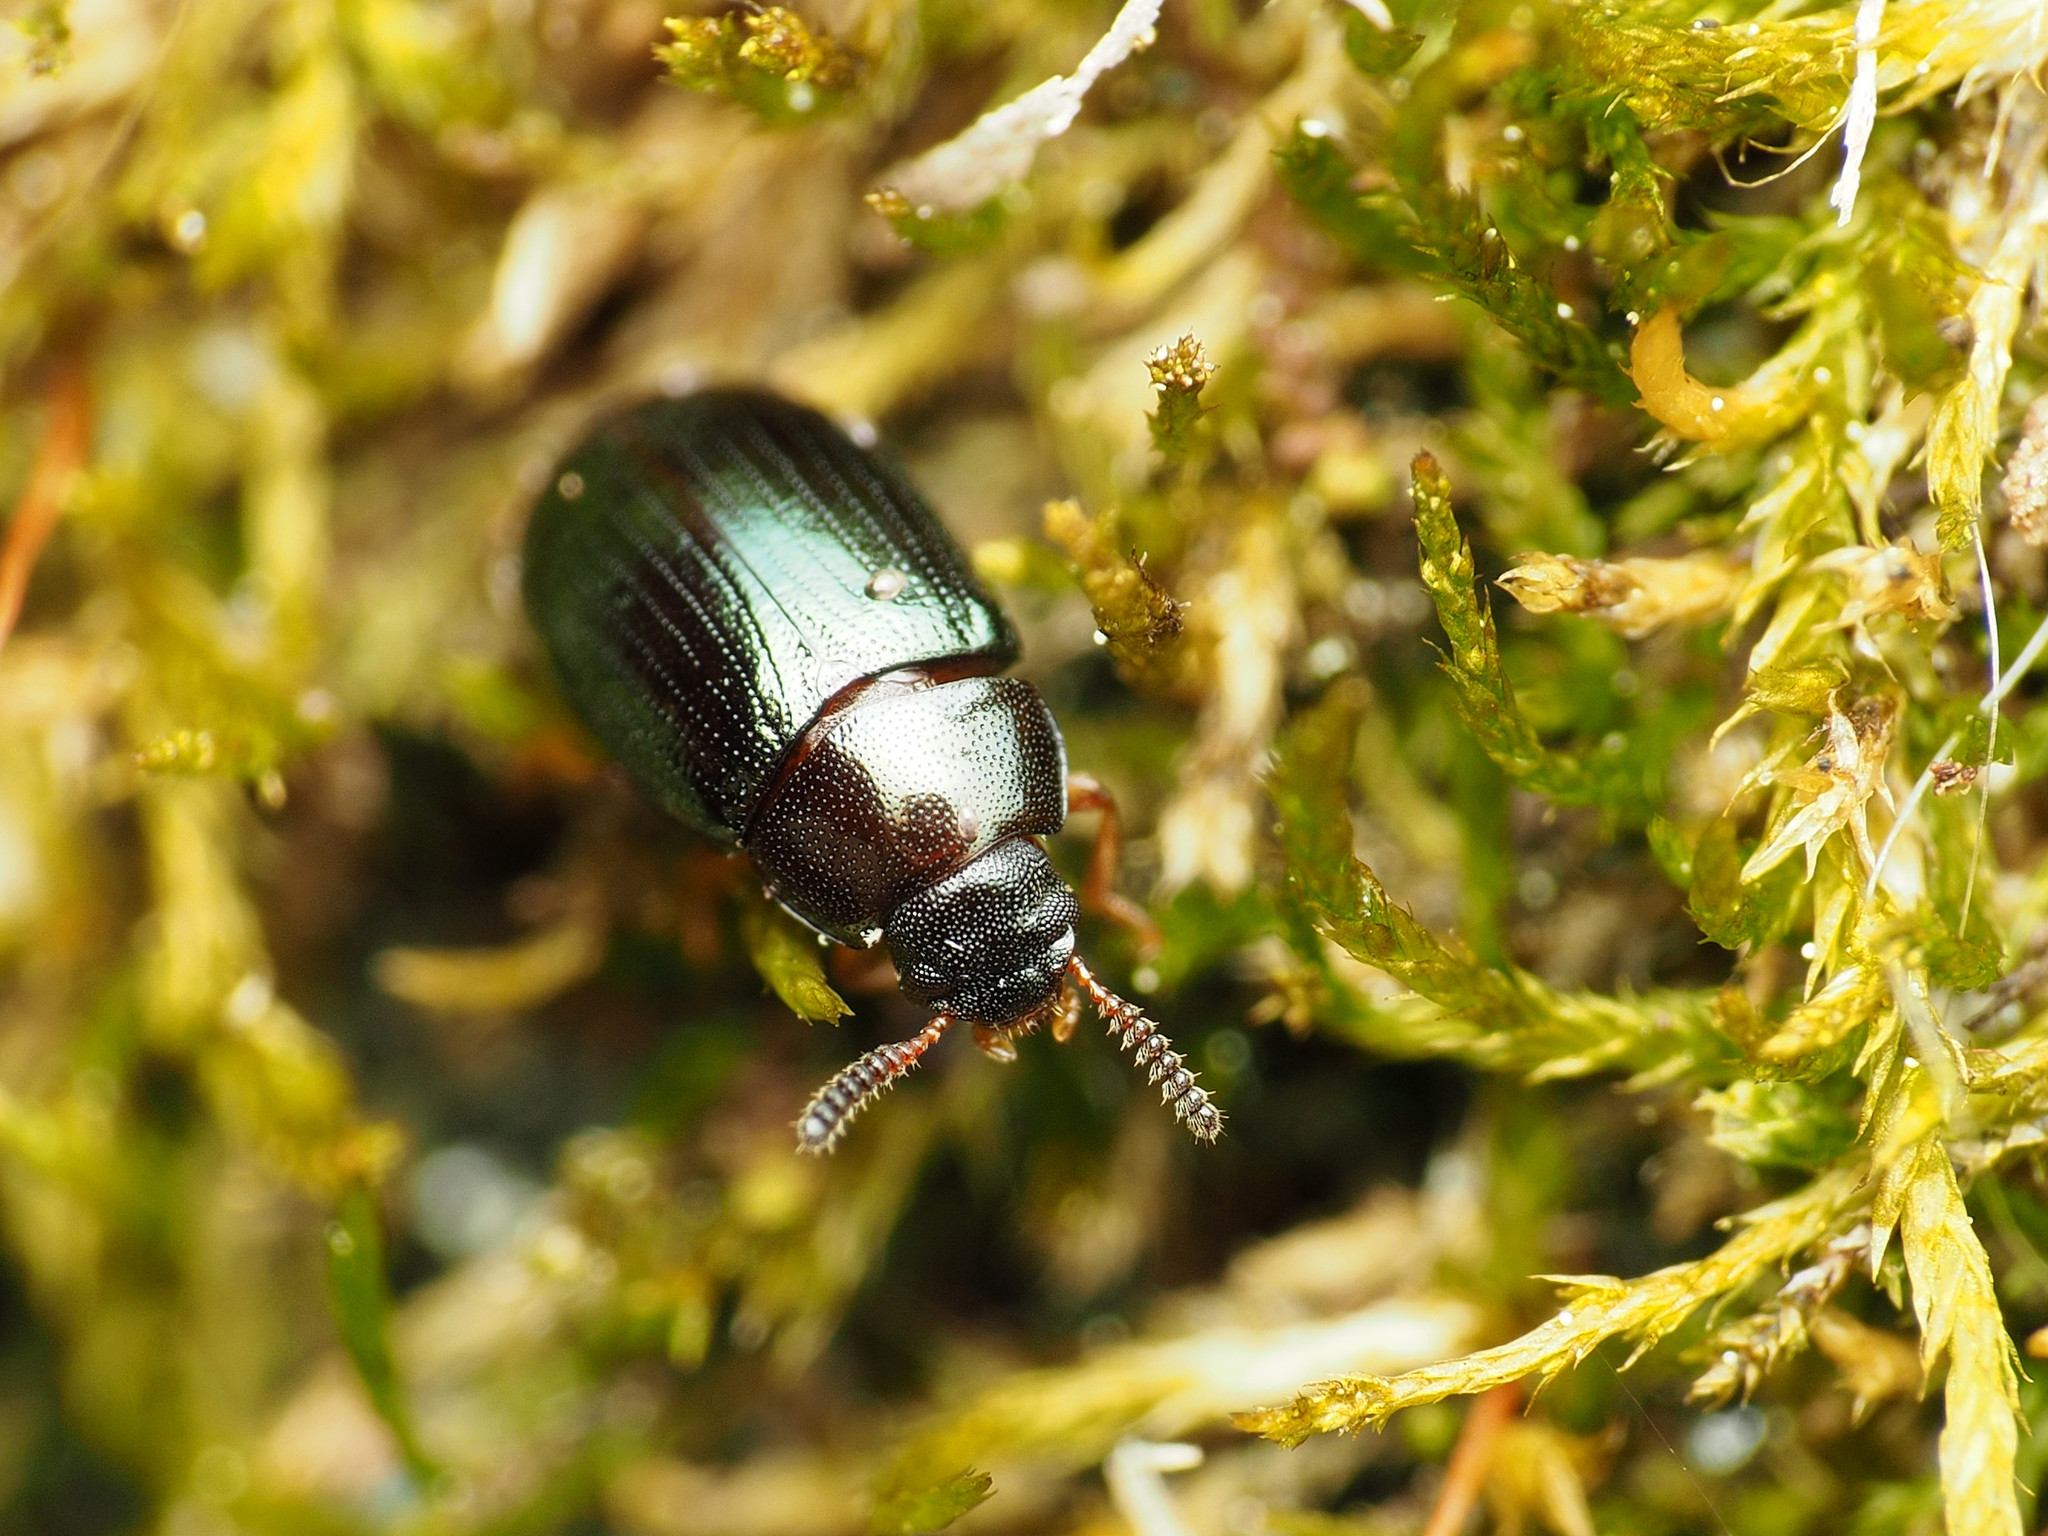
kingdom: Animalia
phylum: Arthropoda
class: Insecta
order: Coleoptera
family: Tenebrionidae
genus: Neomida
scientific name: Neomida bicornis
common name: Two-horned darkling beetle
